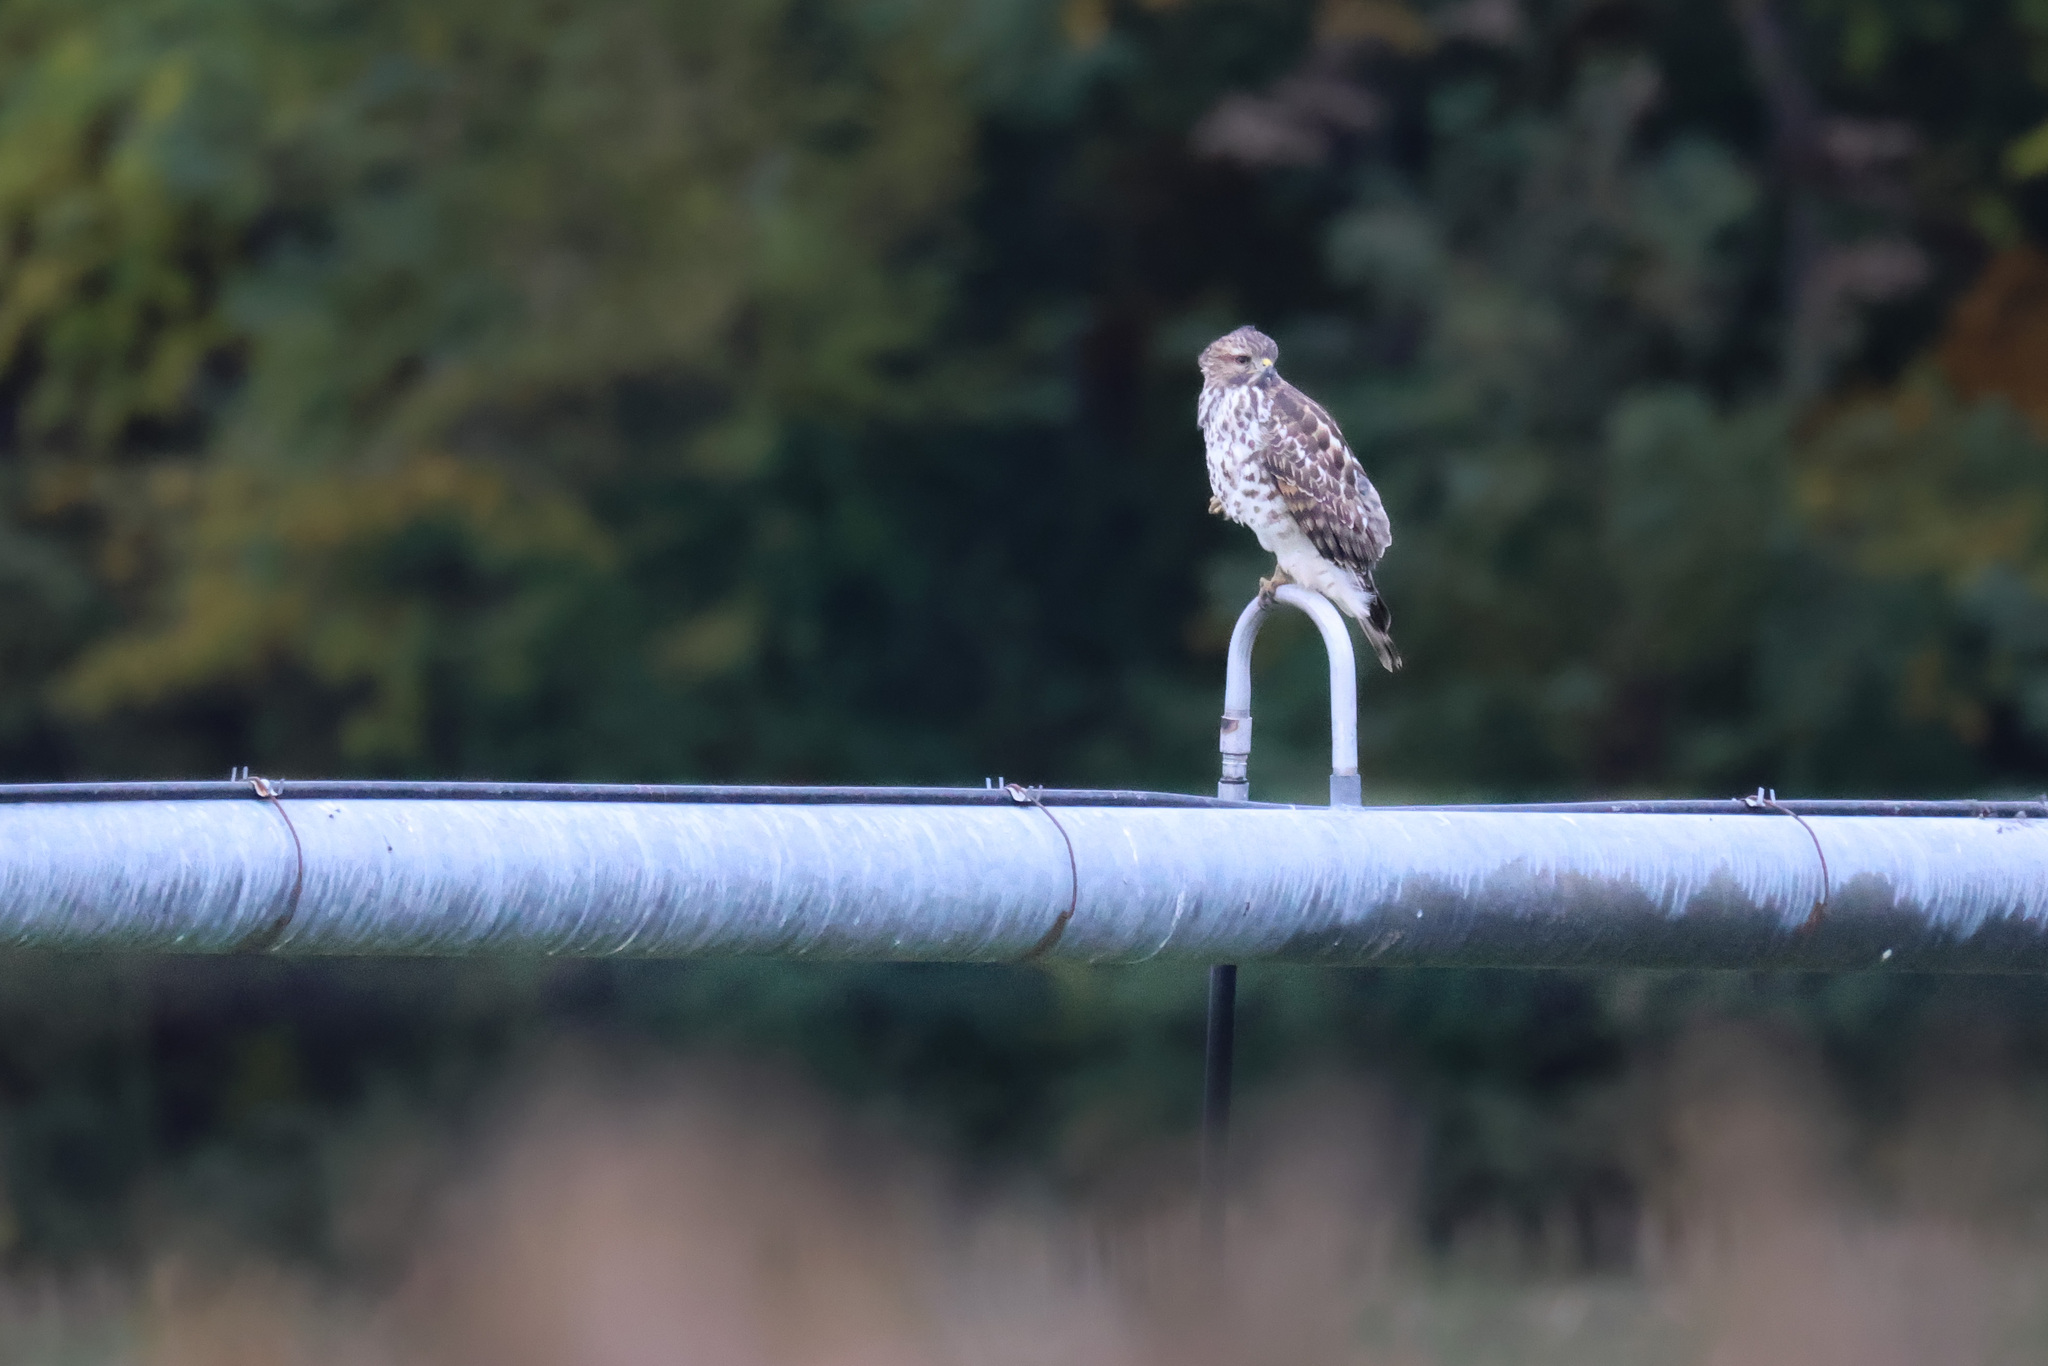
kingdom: Animalia
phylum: Chordata
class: Aves
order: Accipitriformes
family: Accipitridae
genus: Buteo
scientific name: Buteo lineatus
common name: Red-shouldered hawk
